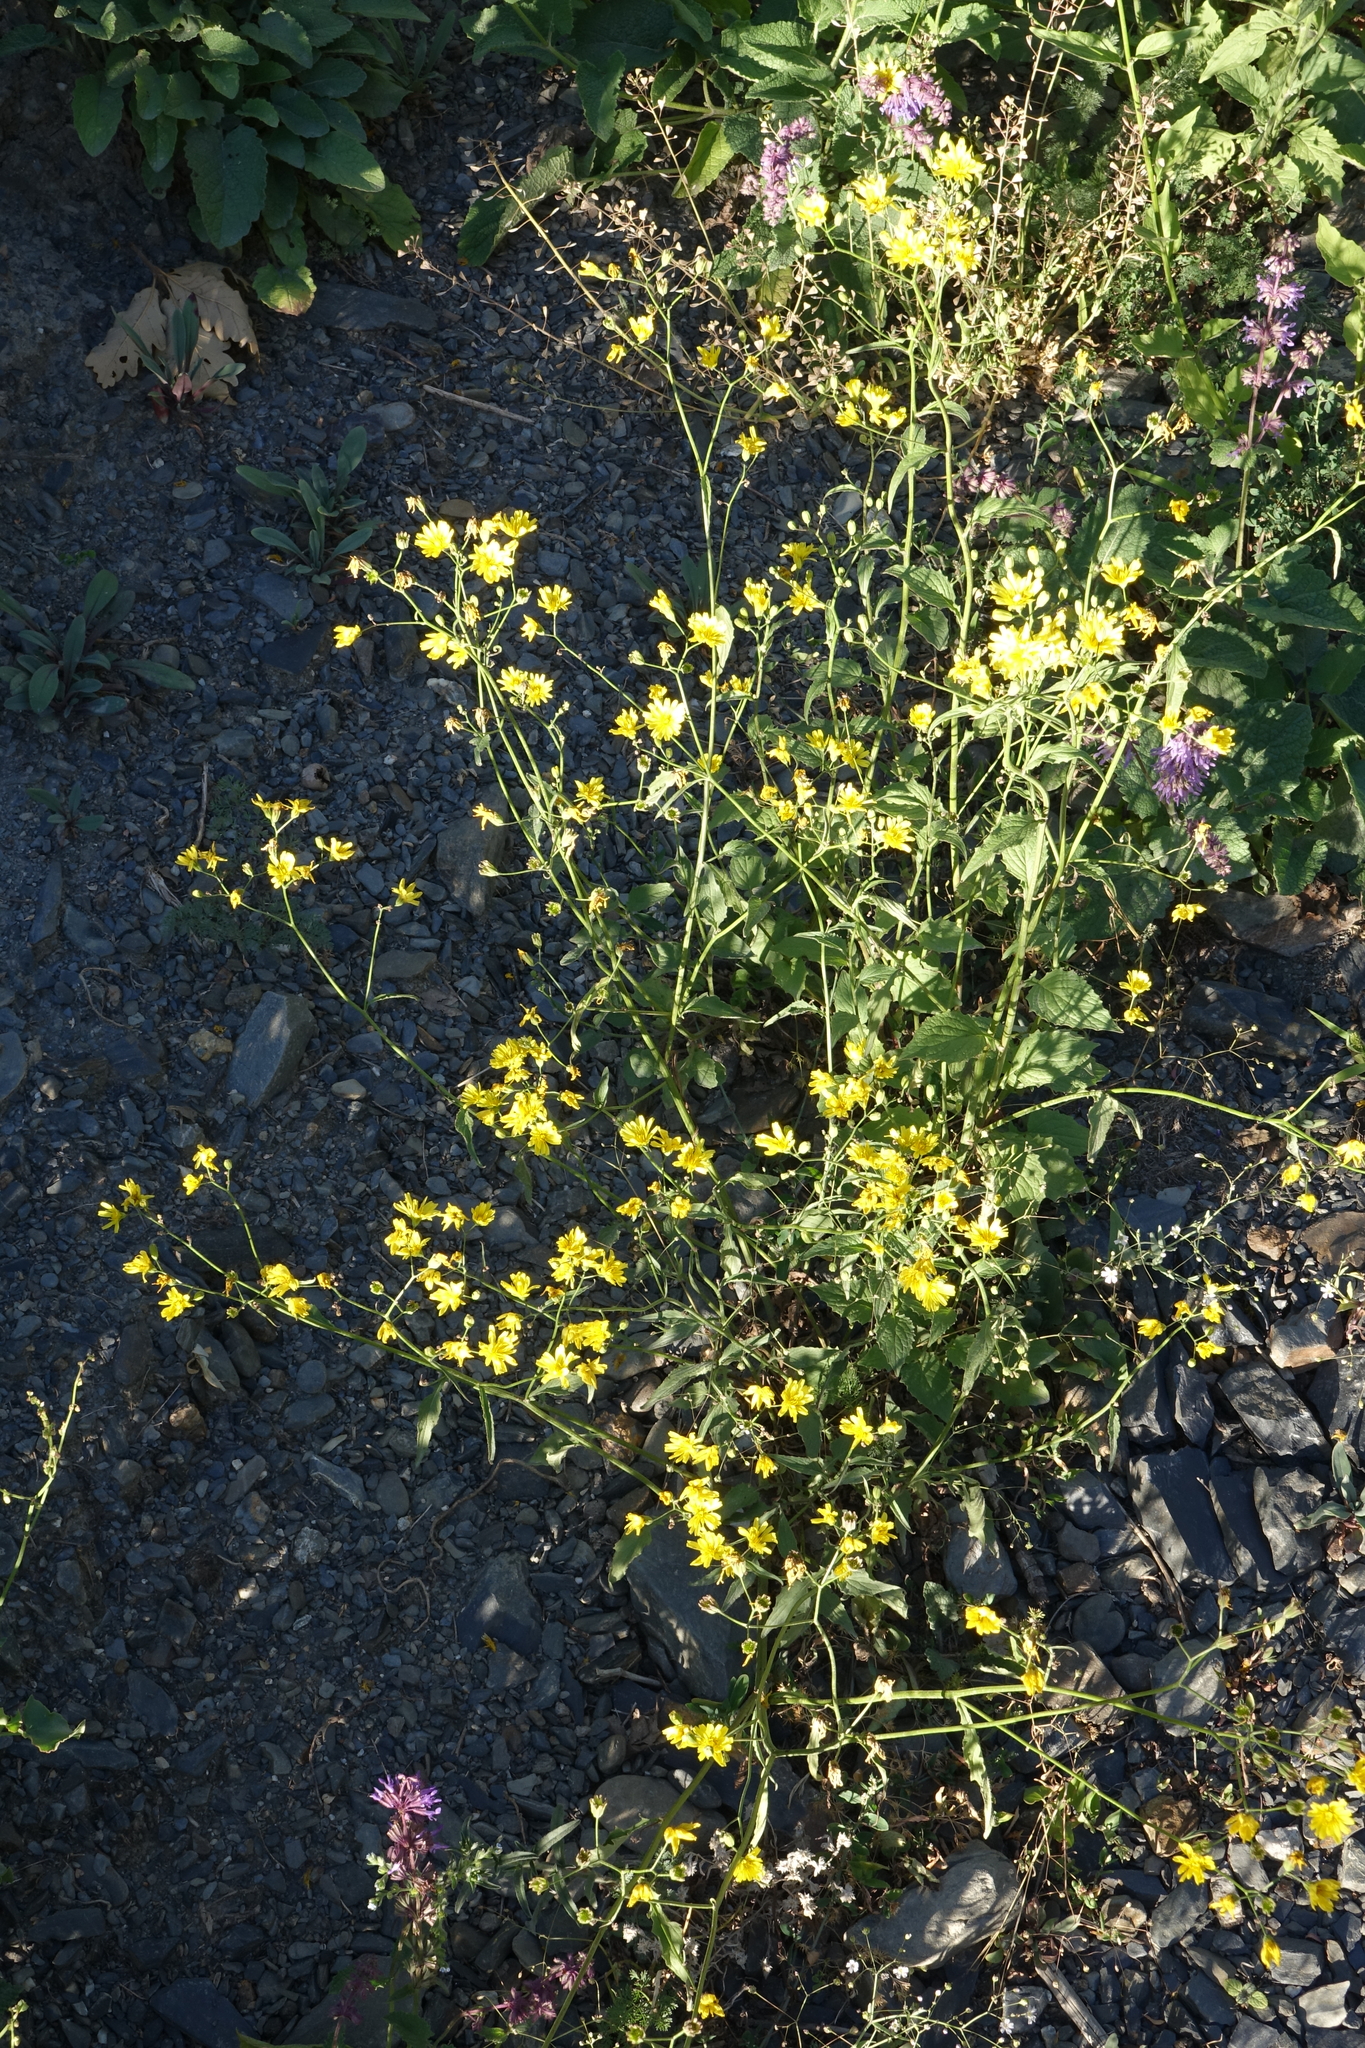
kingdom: Plantae
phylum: Tracheophyta
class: Magnoliopsida
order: Asterales
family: Asteraceae
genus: Lapsana
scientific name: Lapsana communis
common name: Nipplewort
